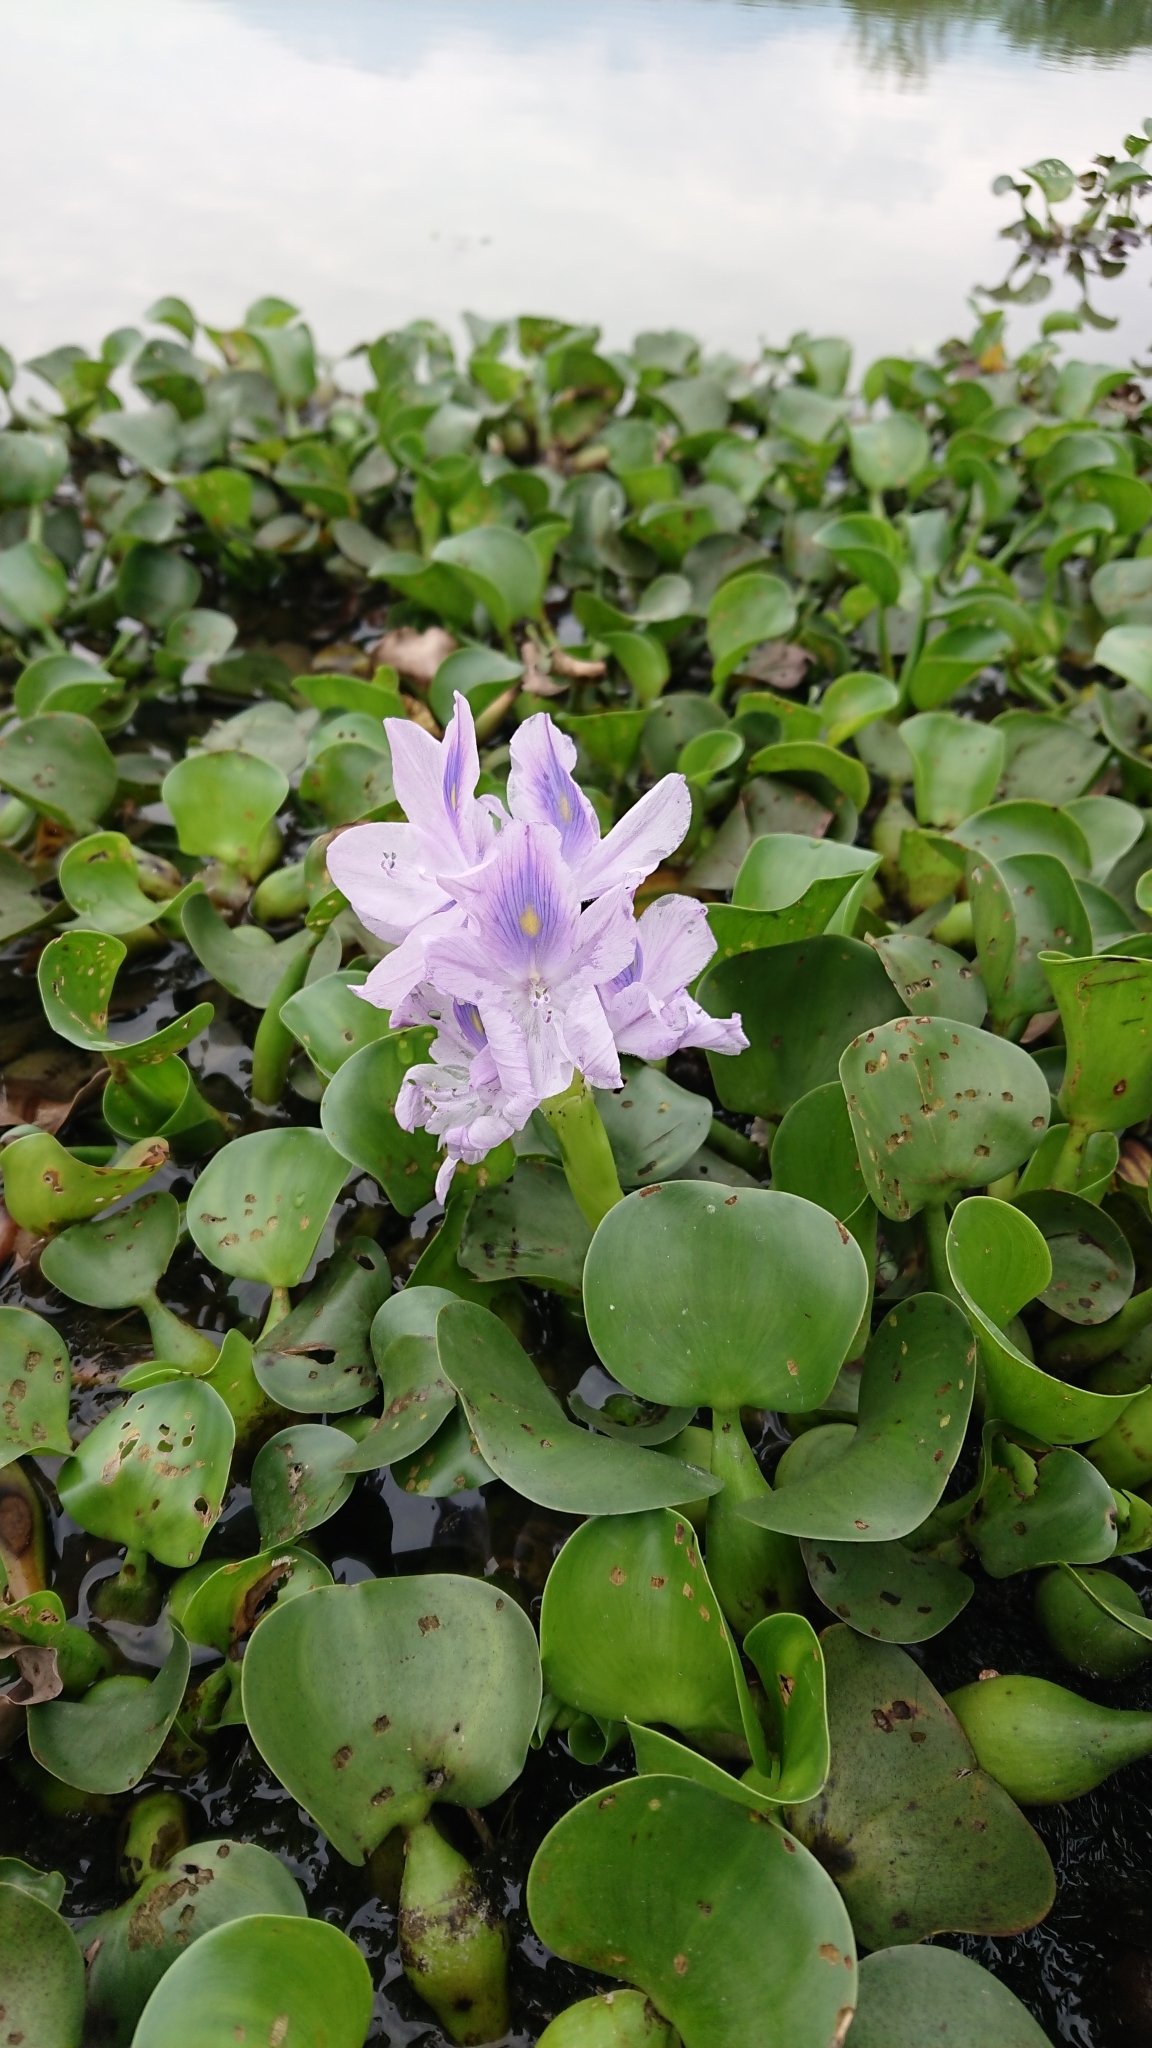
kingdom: Plantae
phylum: Tracheophyta
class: Liliopsida
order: Commelinales
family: Pontederiaceae
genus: Pontederia
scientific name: Pontederia crassipes
